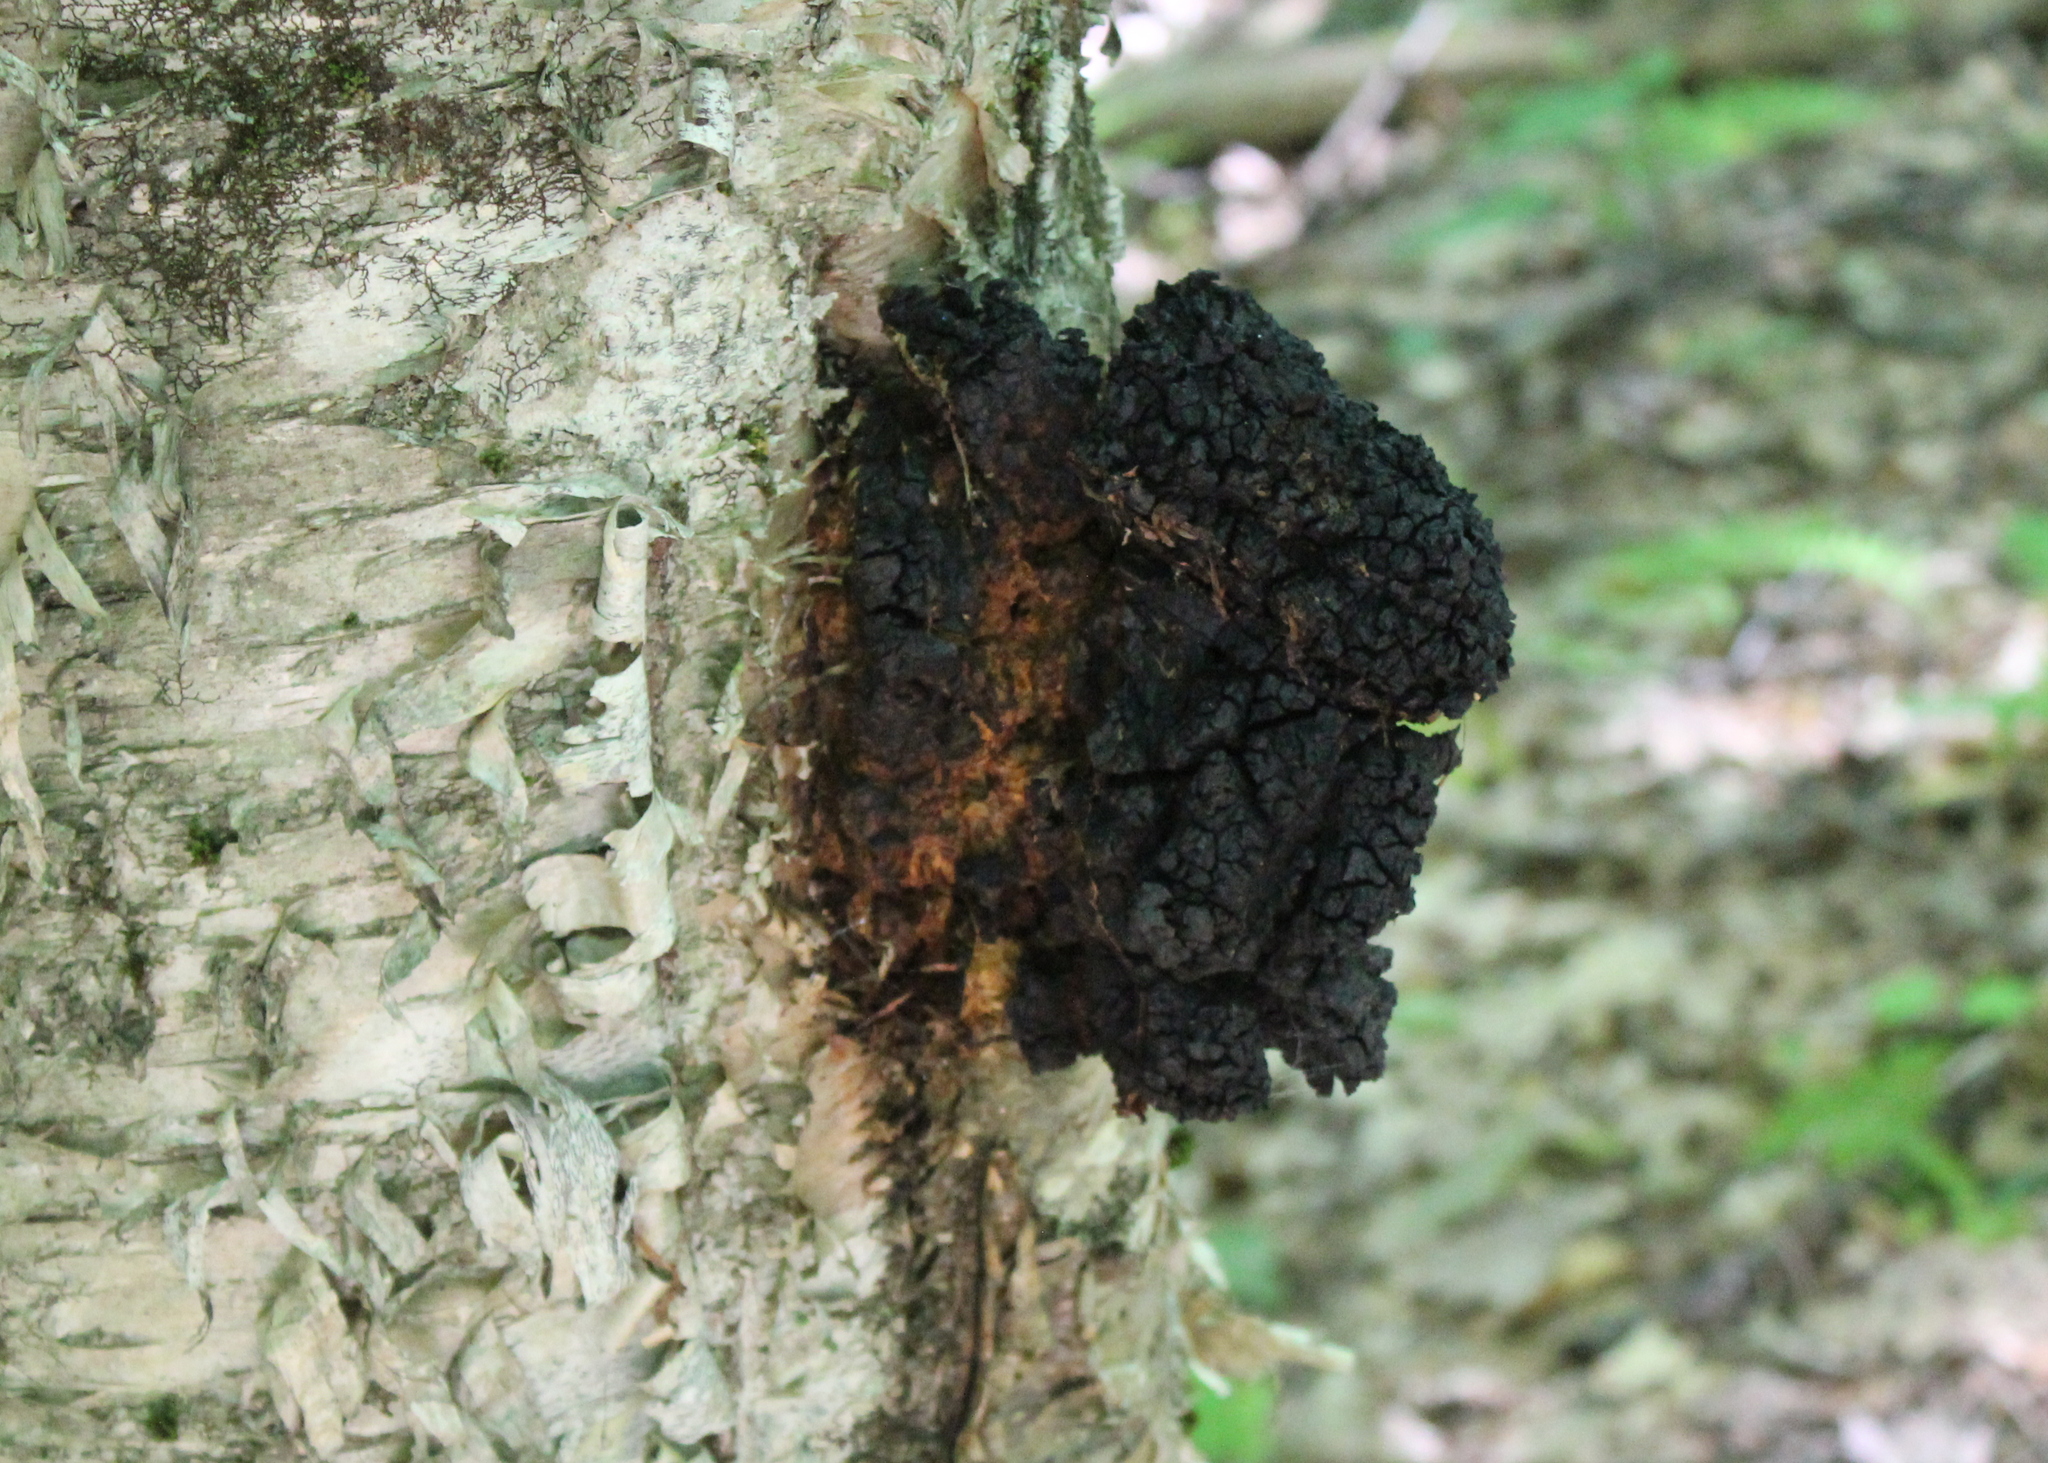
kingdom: Fungi
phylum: Basidiomycota
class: Agaricomycetes
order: Hymenochaetales
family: Hymenochaetaceae
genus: Inonotus
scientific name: Inonotus obliquus
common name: Chaga
